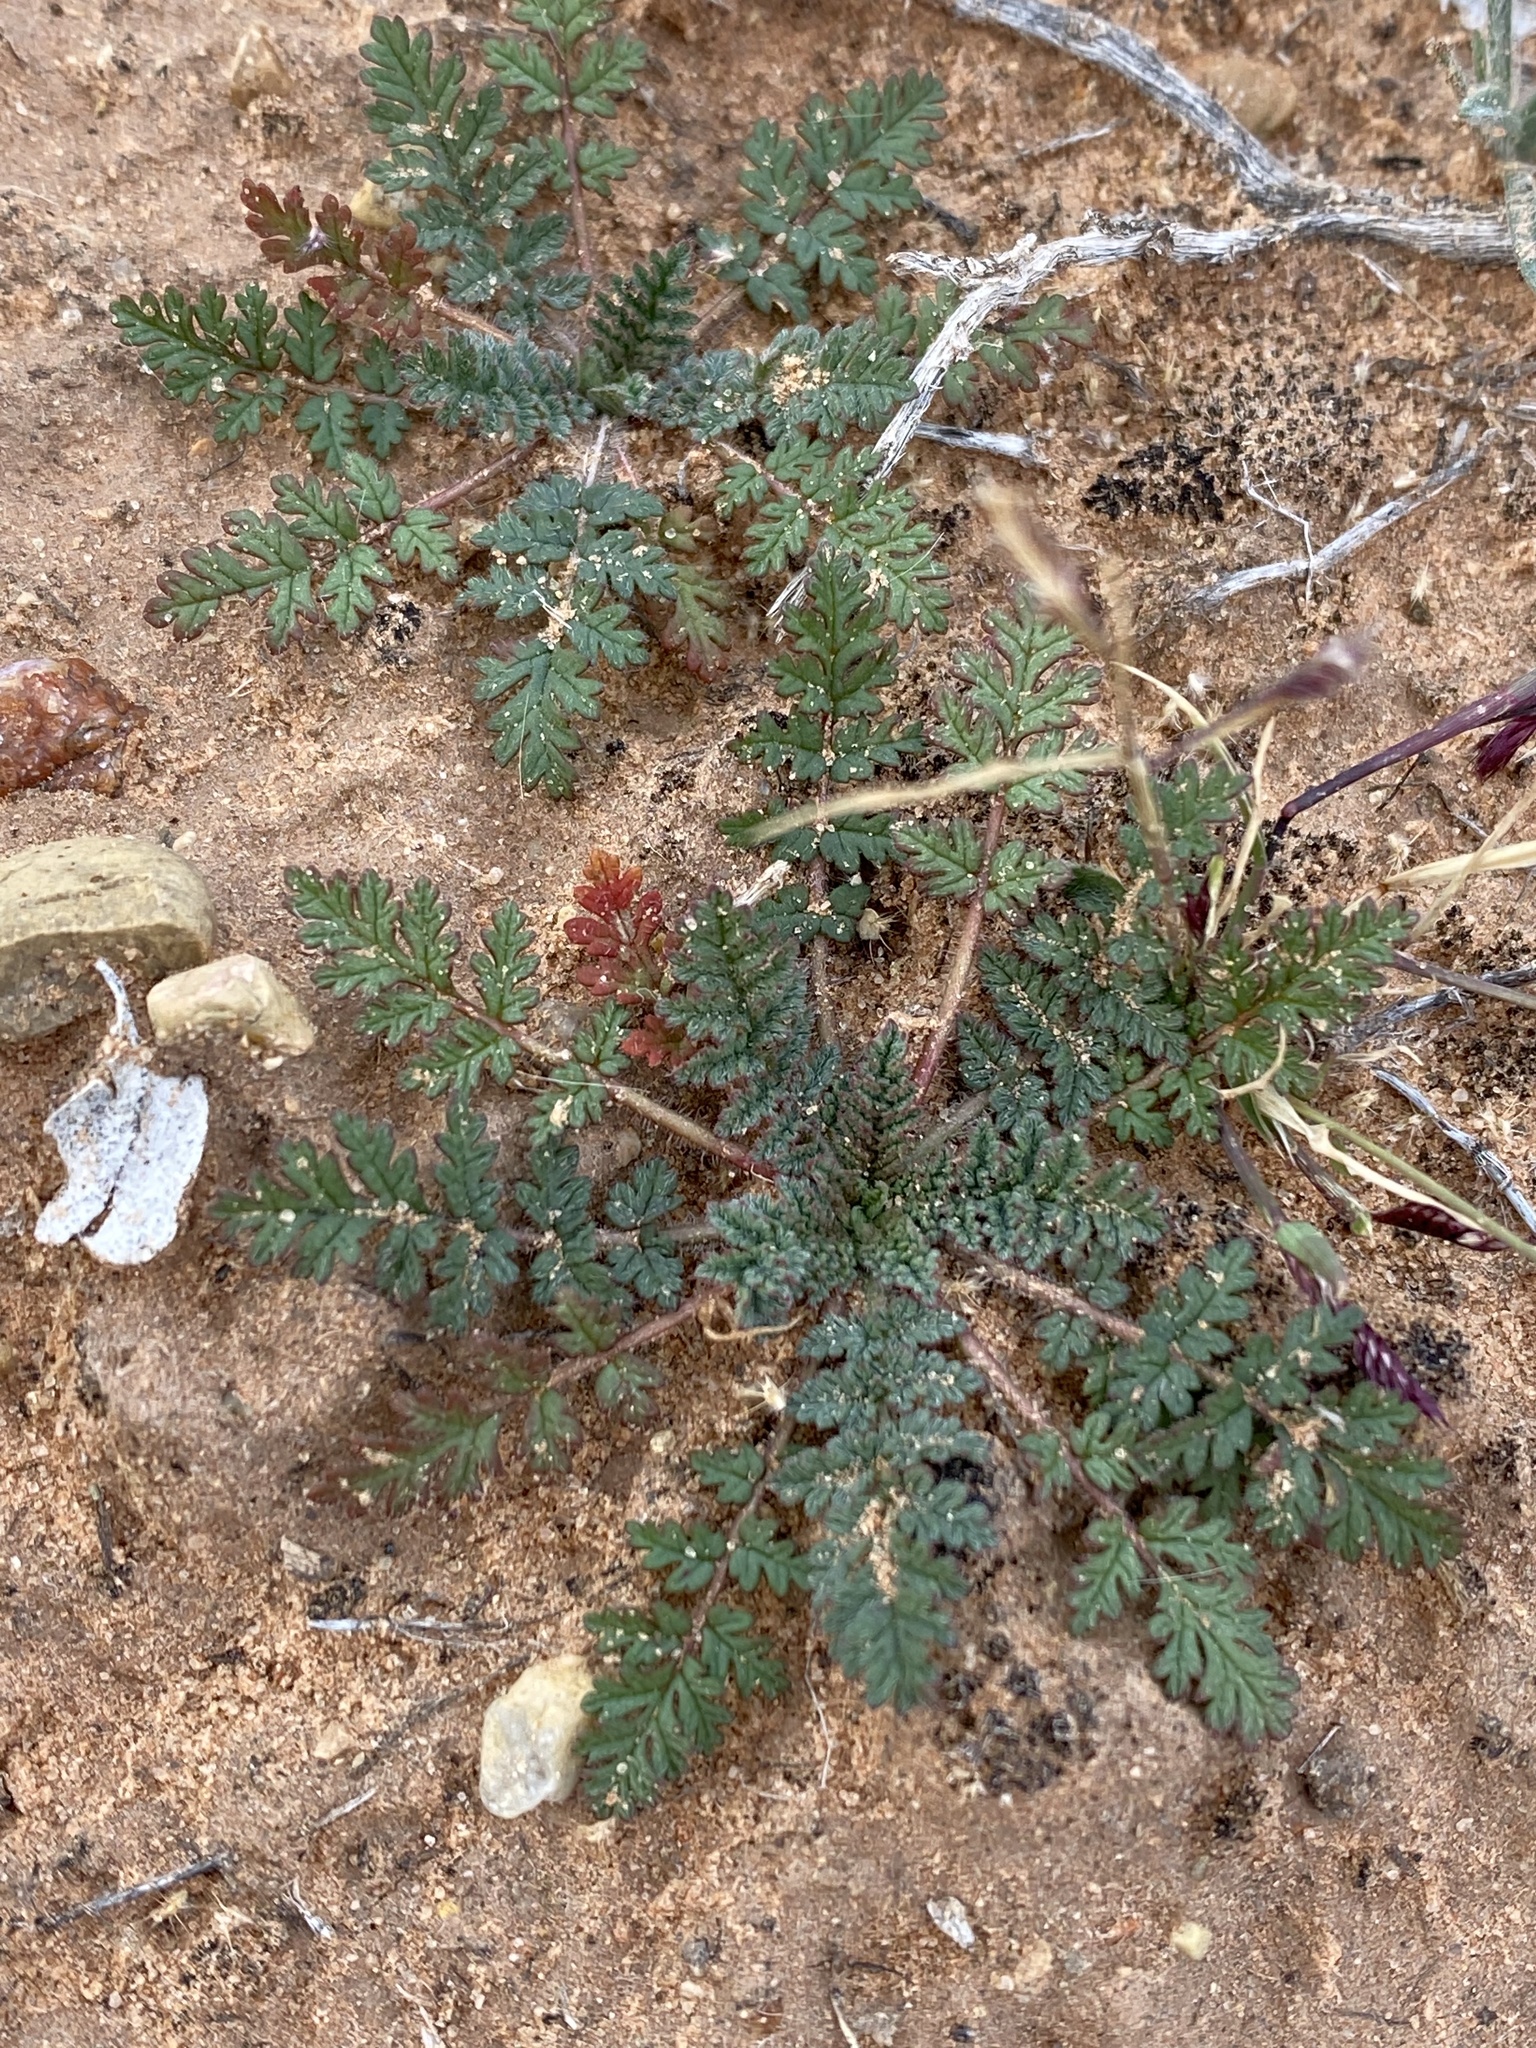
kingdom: Plantae
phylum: Tracheophyta
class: Magnoliopsida
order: Geraniales
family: Geraniaceae
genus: Erodium
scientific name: Erodium cicutarium
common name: Common stork's-bill
